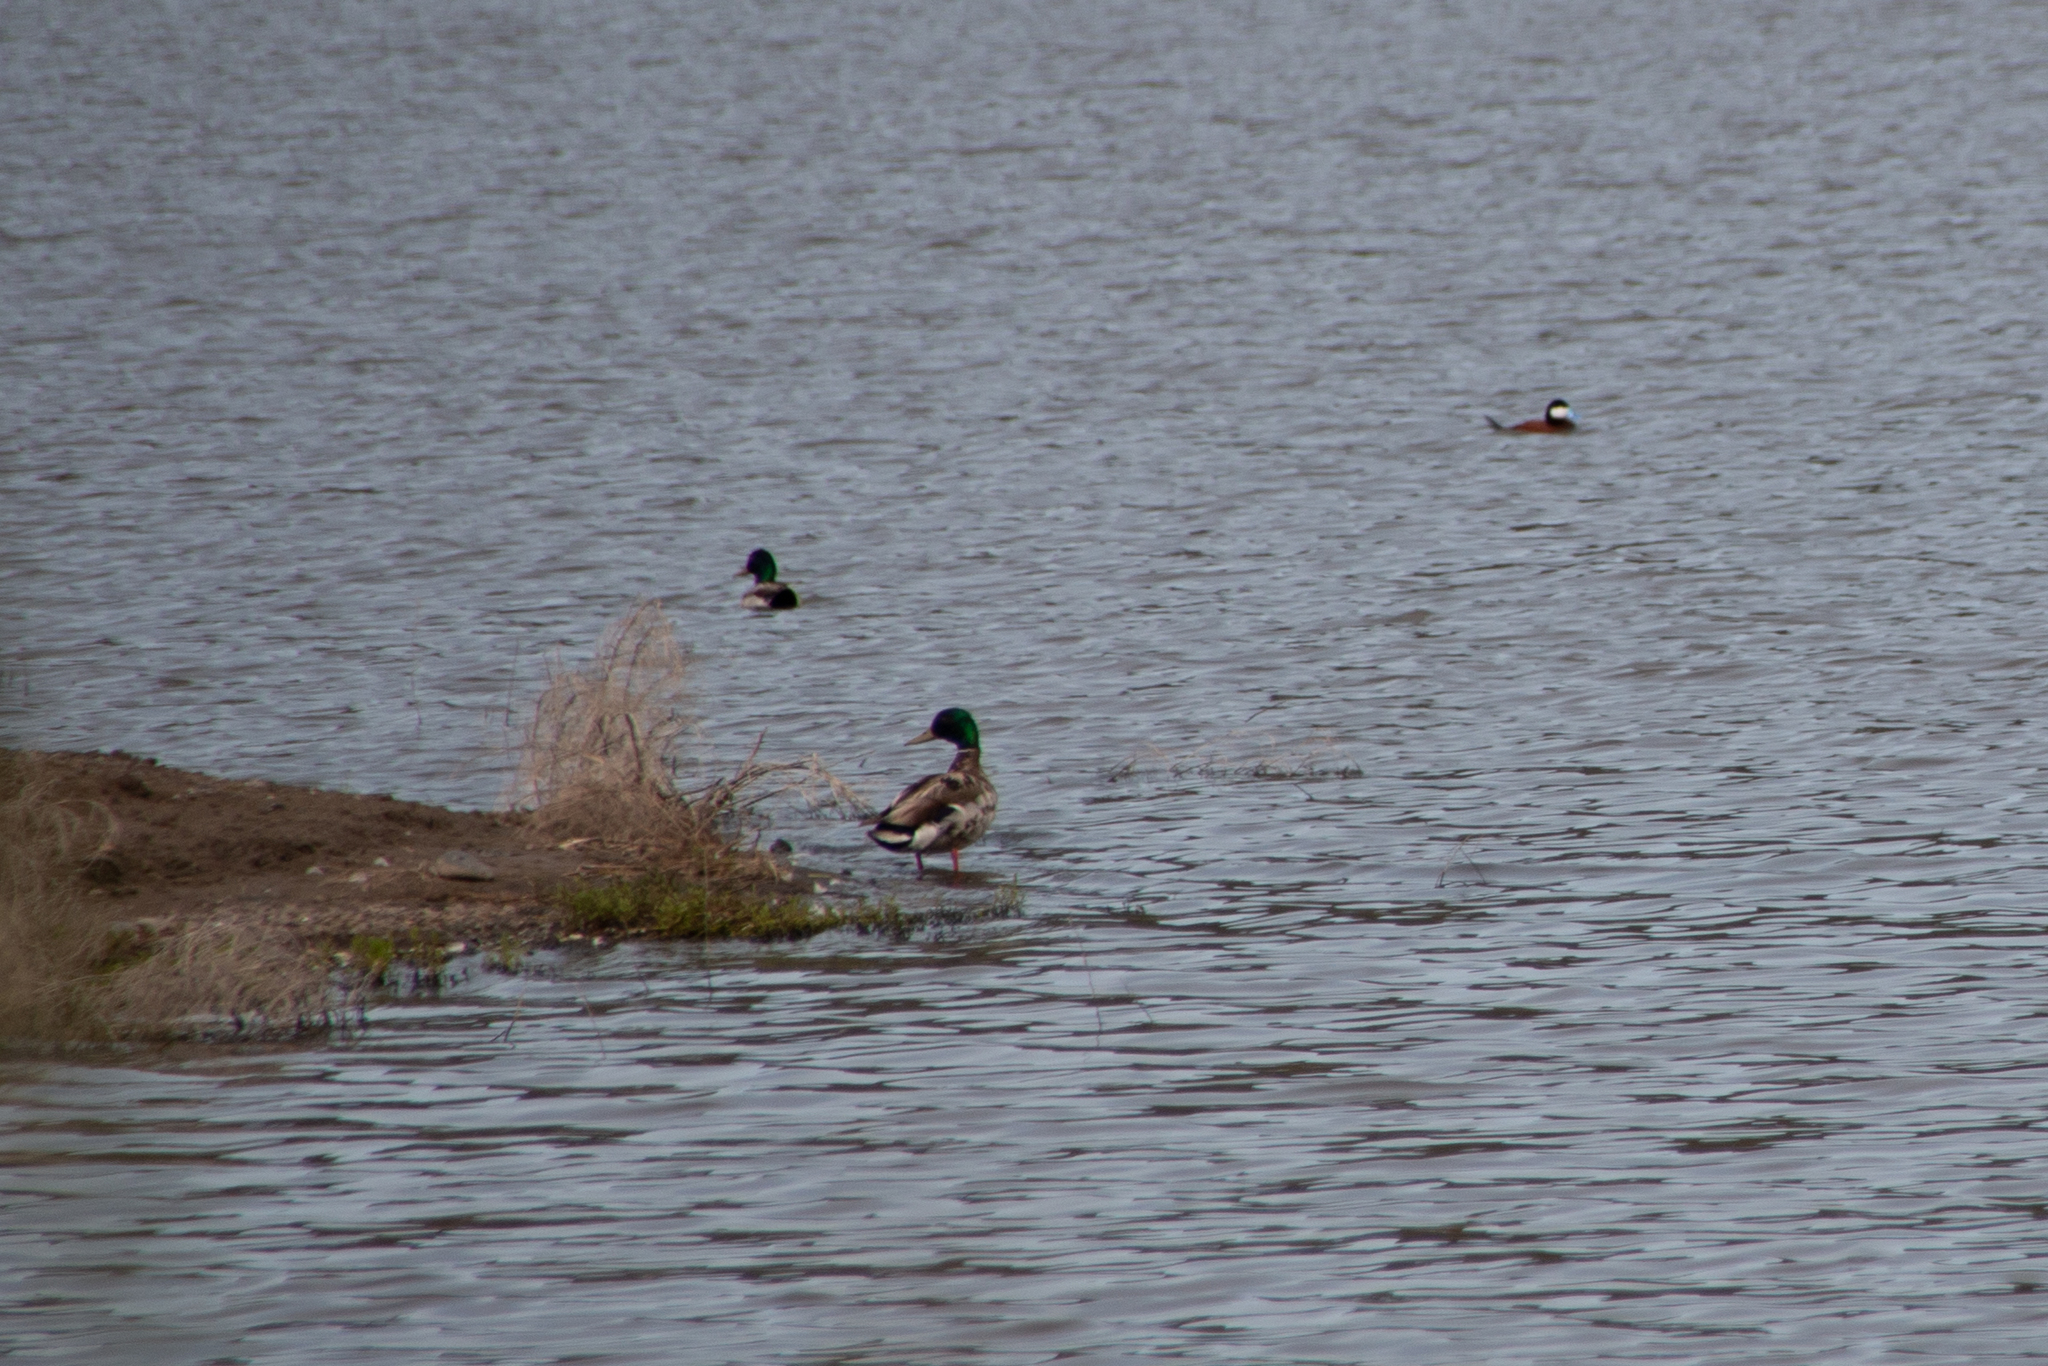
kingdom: Animalia
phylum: Chordata
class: Aves
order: Anseriformes
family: Anatidae
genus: Anas
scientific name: Anas platyrhynchos
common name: Mallard
